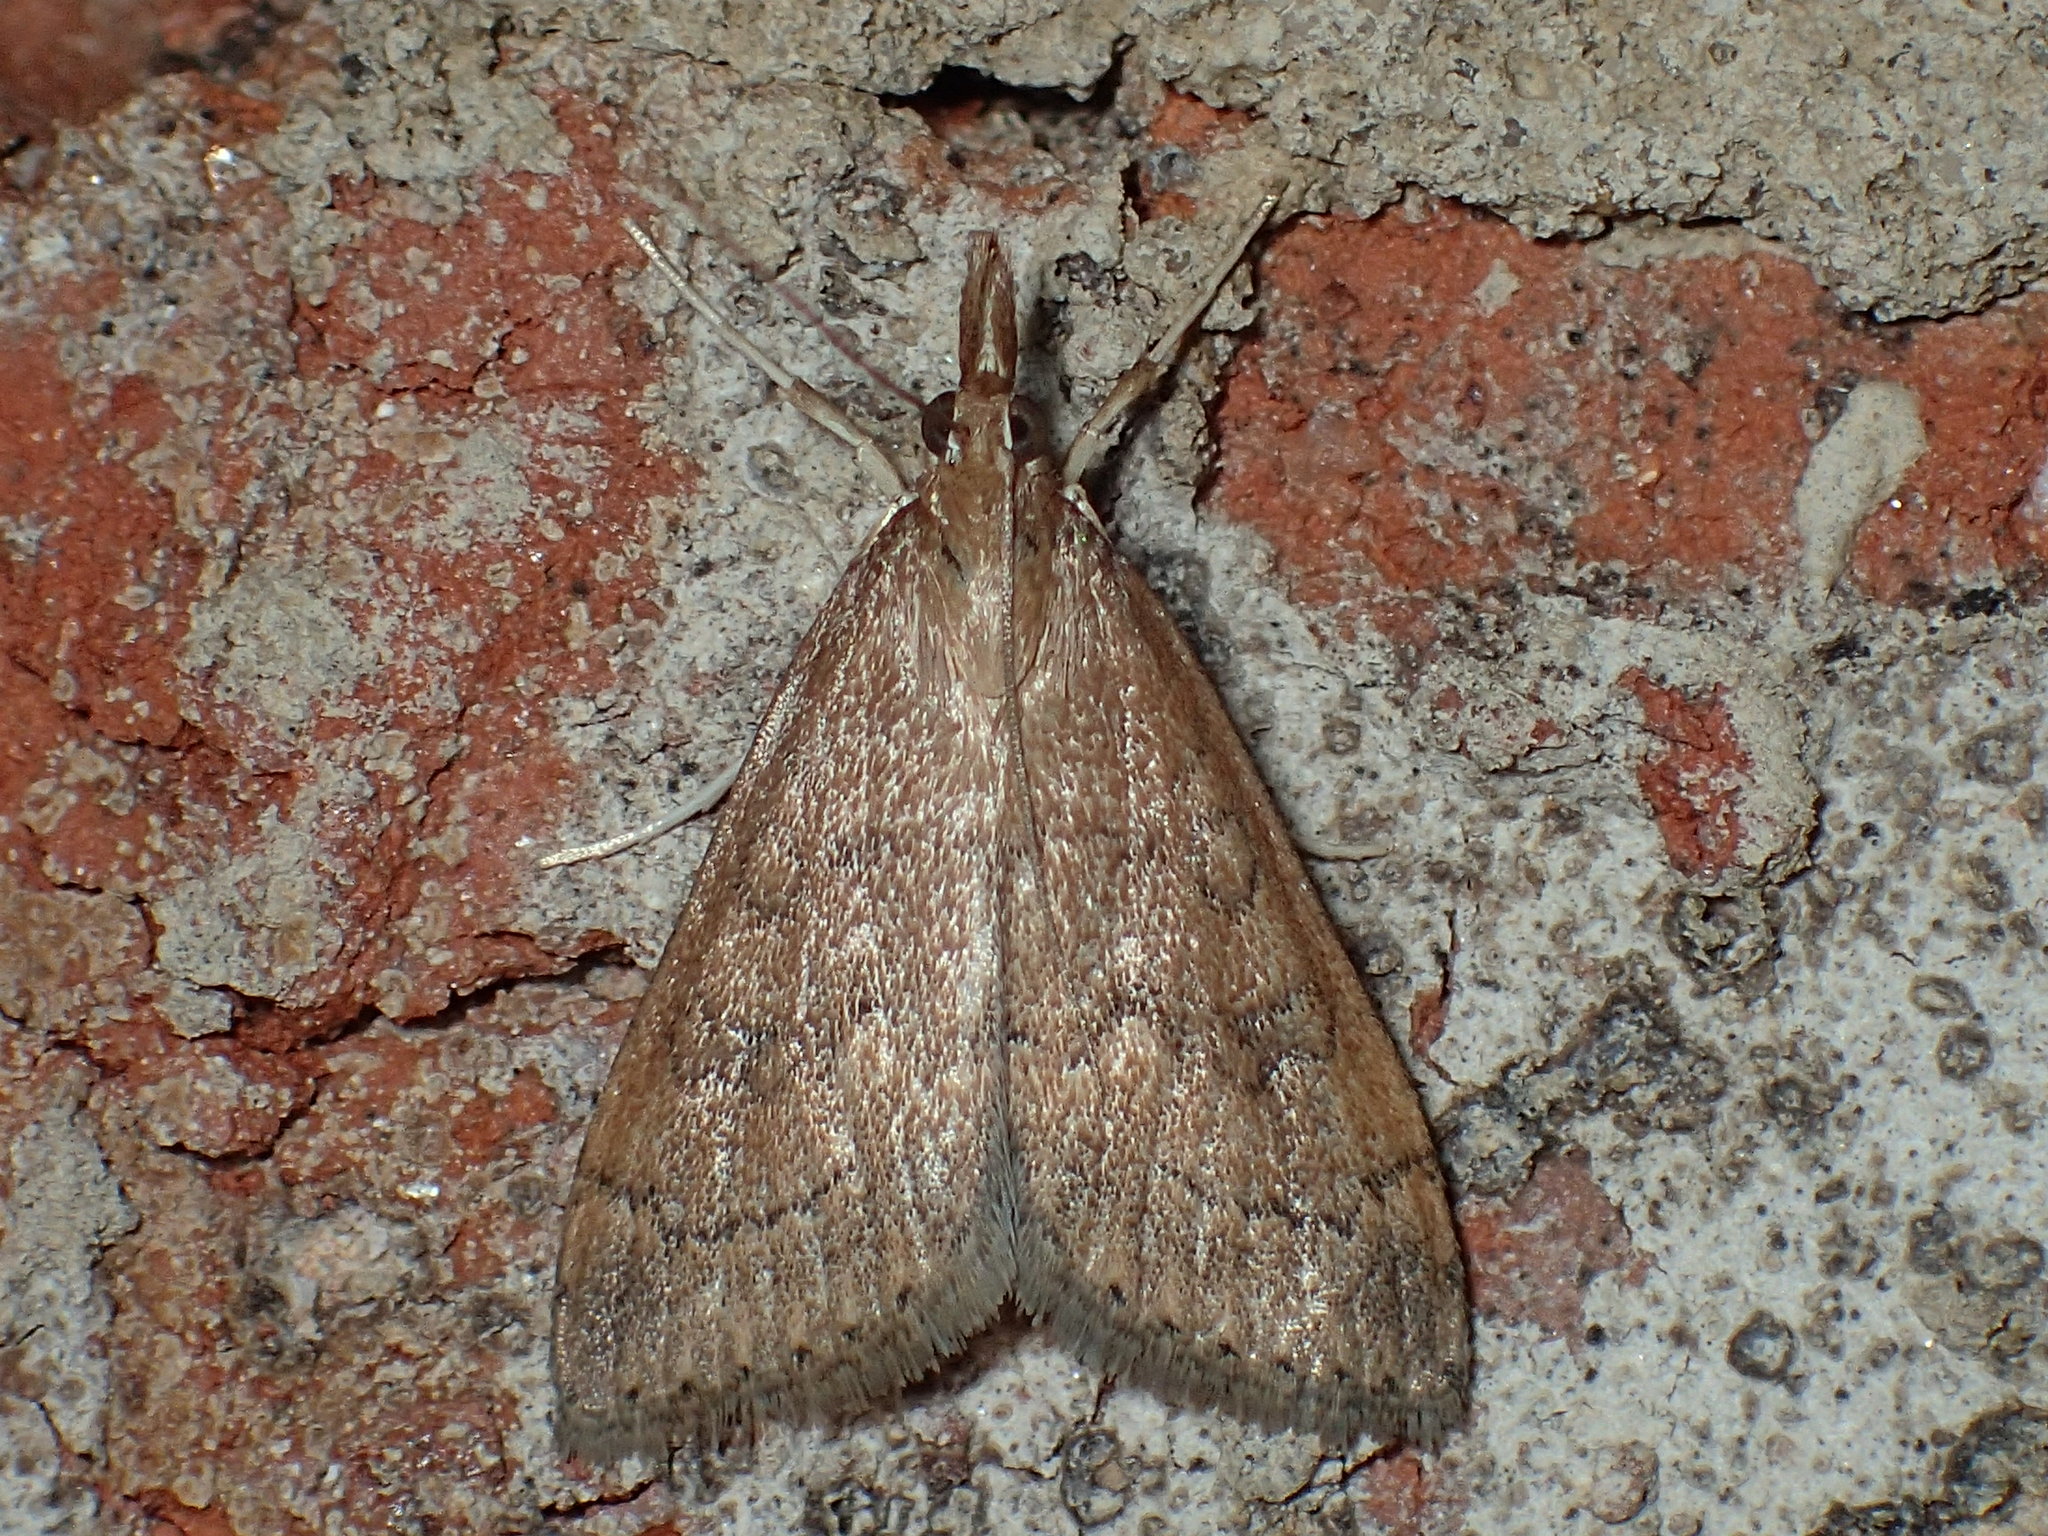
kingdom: Animalia
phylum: Arthropoda
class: Insecta
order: Lepidoptera
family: Crambidae
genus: Udea
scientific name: Udea rubigalis
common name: Celery leaftier moth
